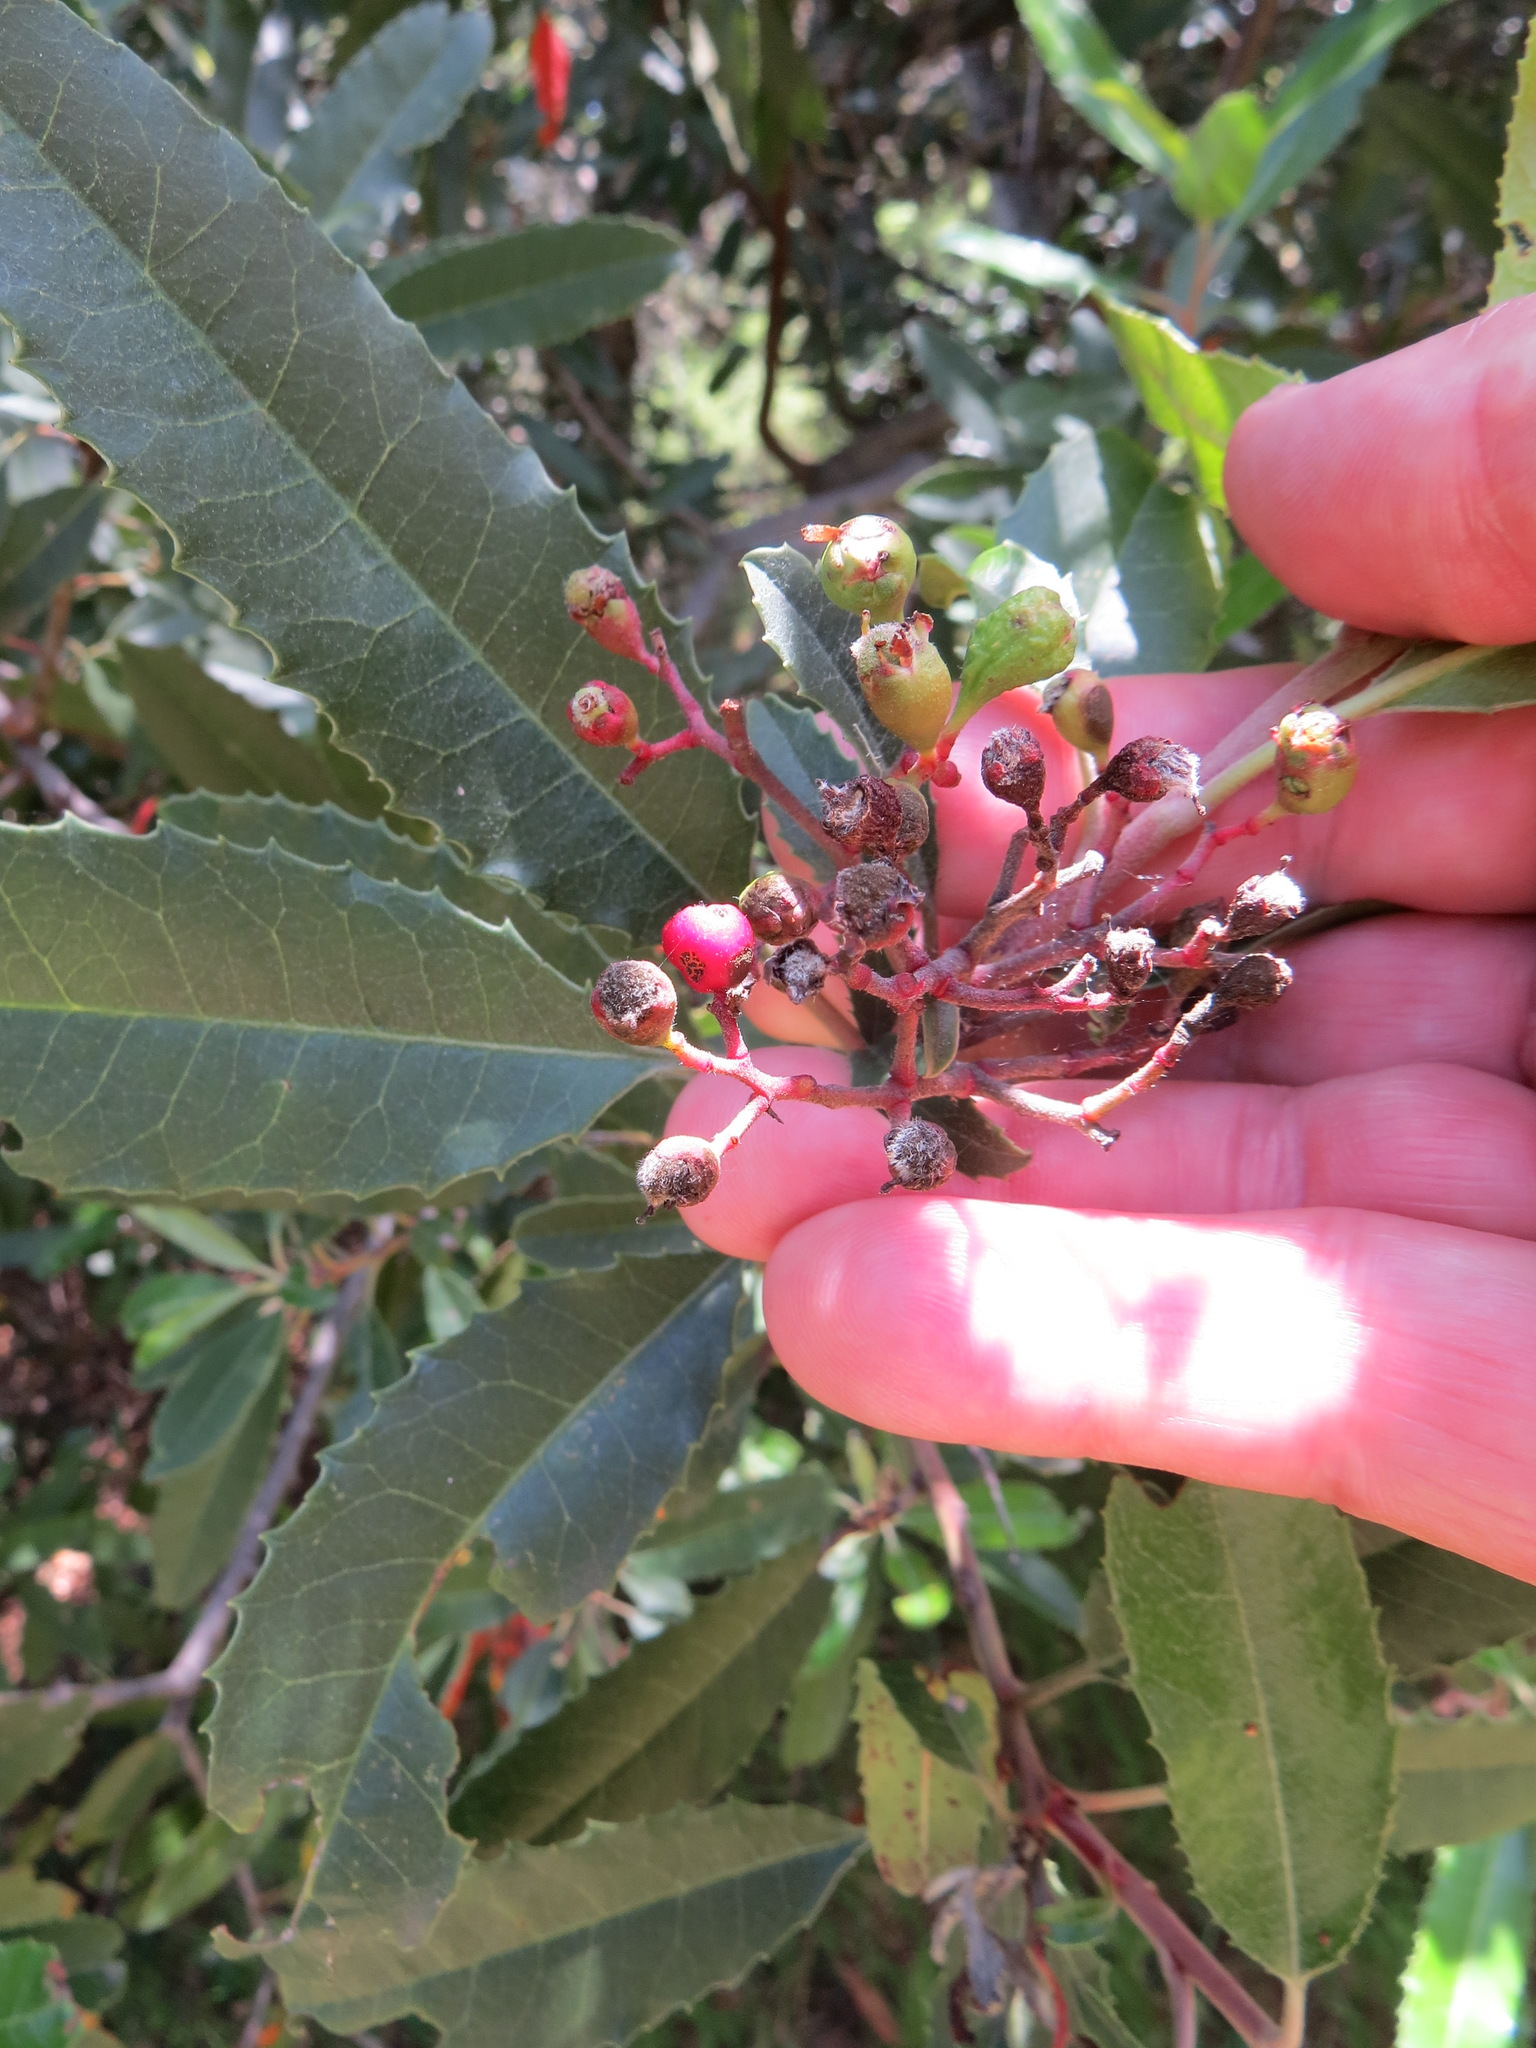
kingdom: Animalia
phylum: Arthropoda
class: Insecta
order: Diptera
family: Cecidomyiidae
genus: Asphondylia
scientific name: Asphondylia photiniae
